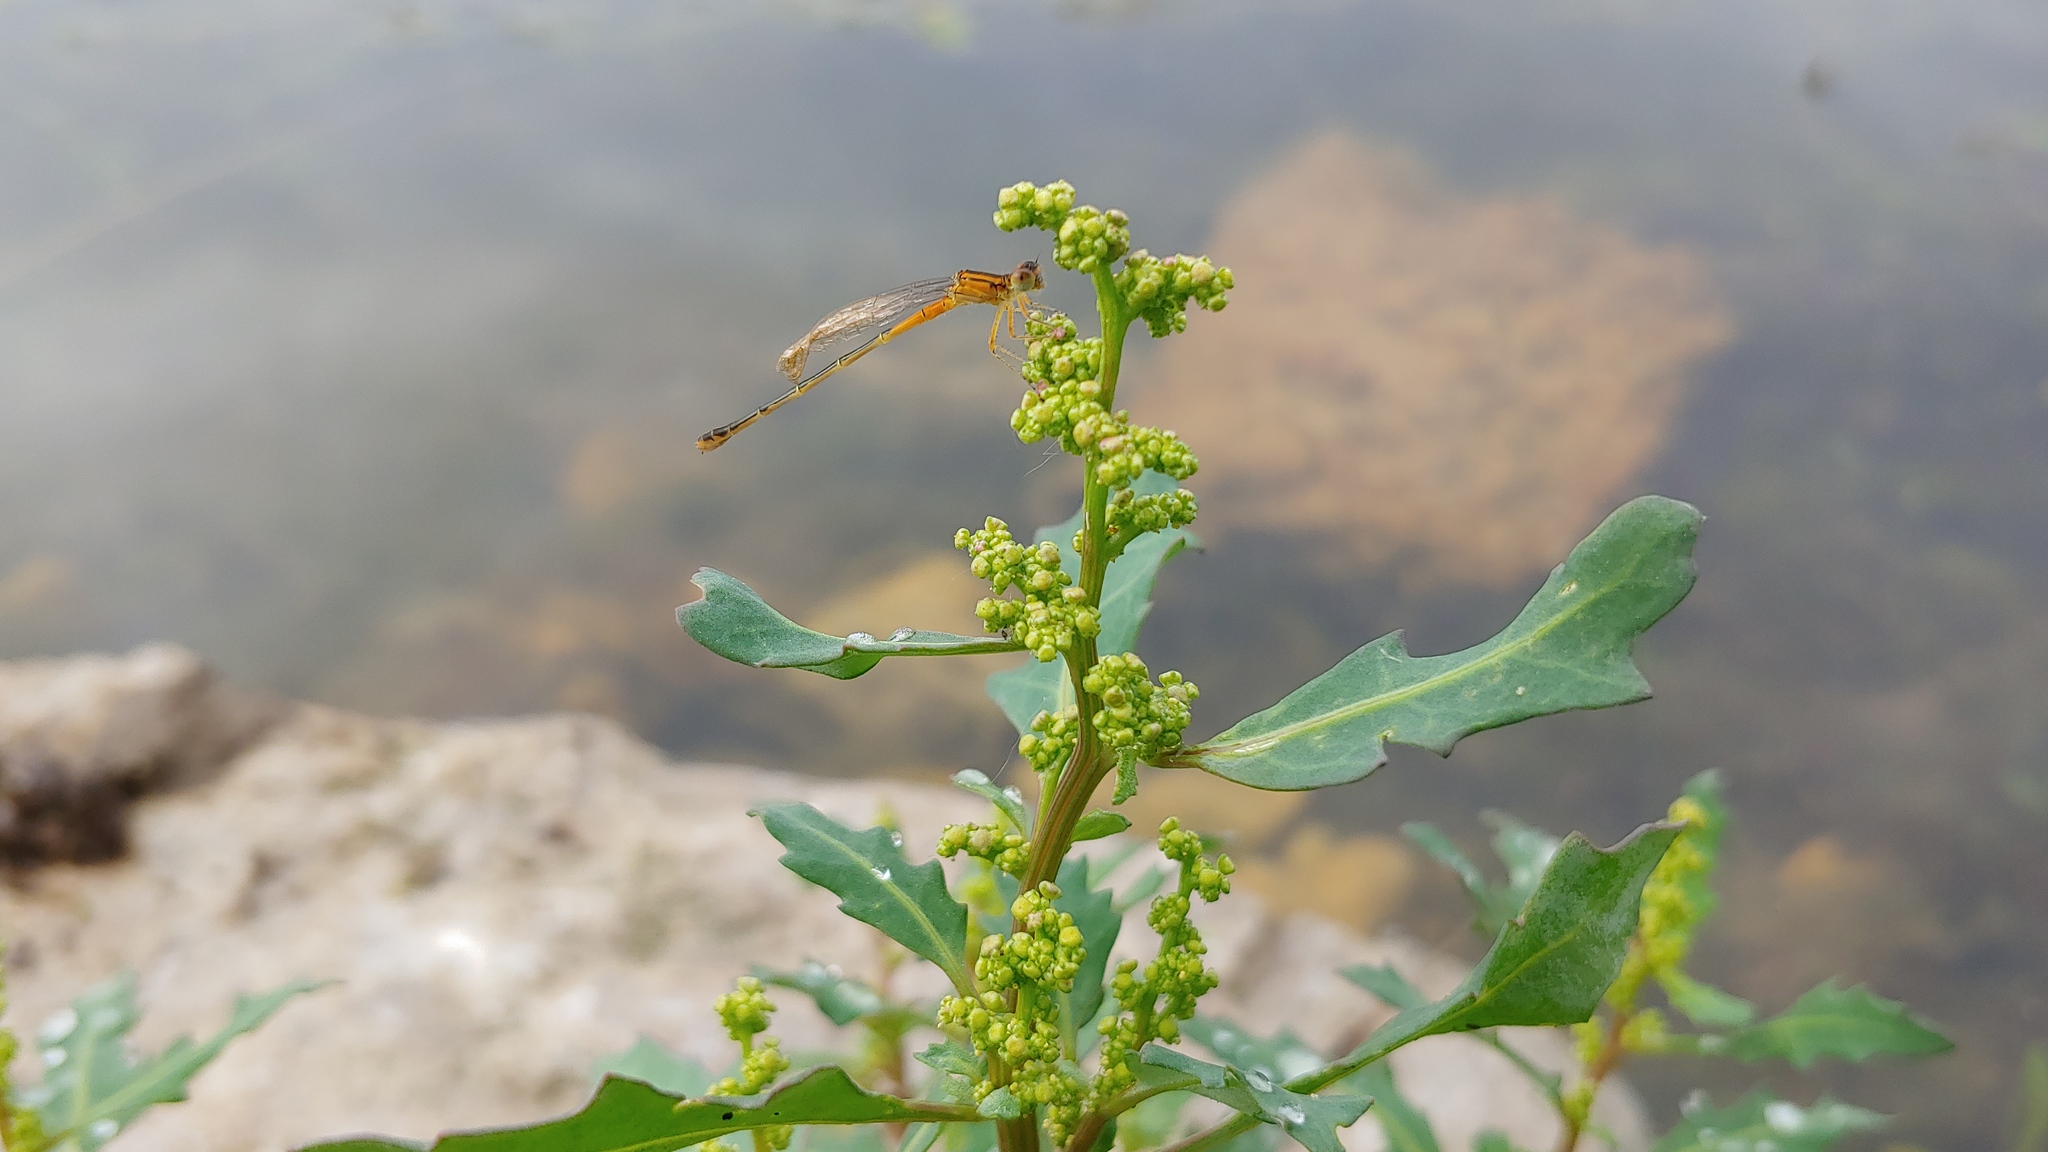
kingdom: Plantae
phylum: Tracheophyta
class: Magnoliopsida
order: Caryophyllales
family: Amaranthaceae
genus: Oxybasis
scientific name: Oxybasis glauca
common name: Glaucous goosefoot
